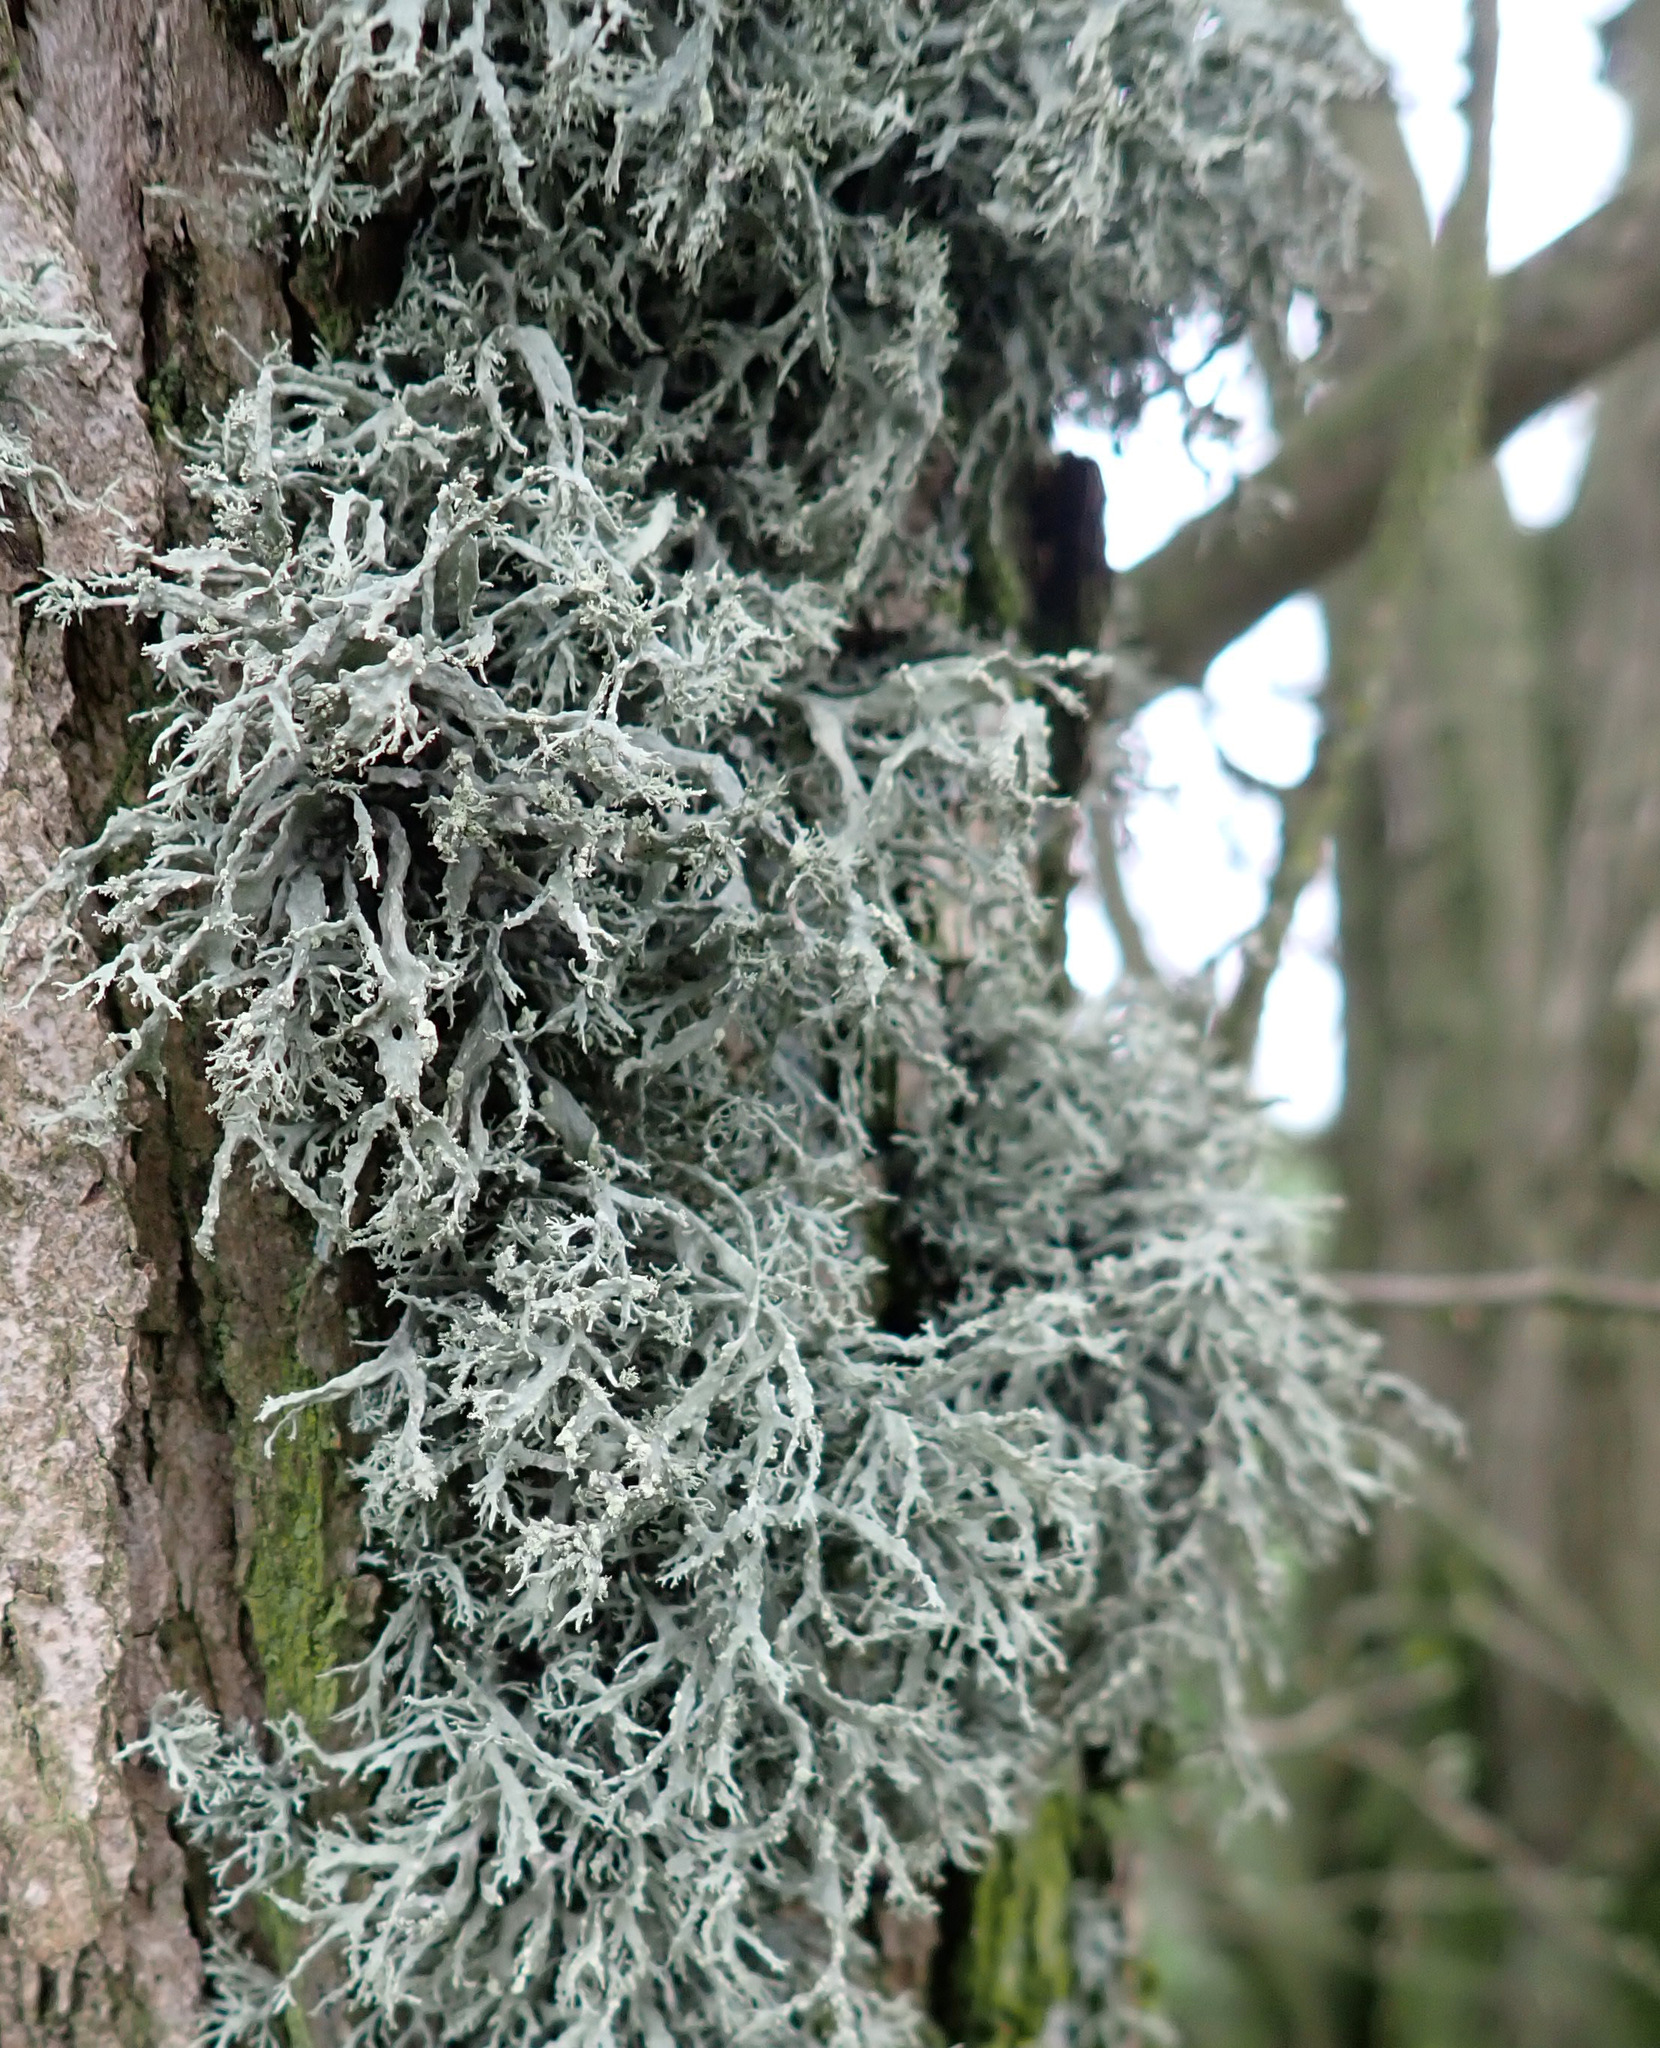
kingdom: Fungi
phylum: Ascomycota
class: Lecanoromycetes
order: Lecanorales
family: Ramalinaceae
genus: Ramalina
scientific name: Ramalina farinacea
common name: Farinose cartilage lichen
